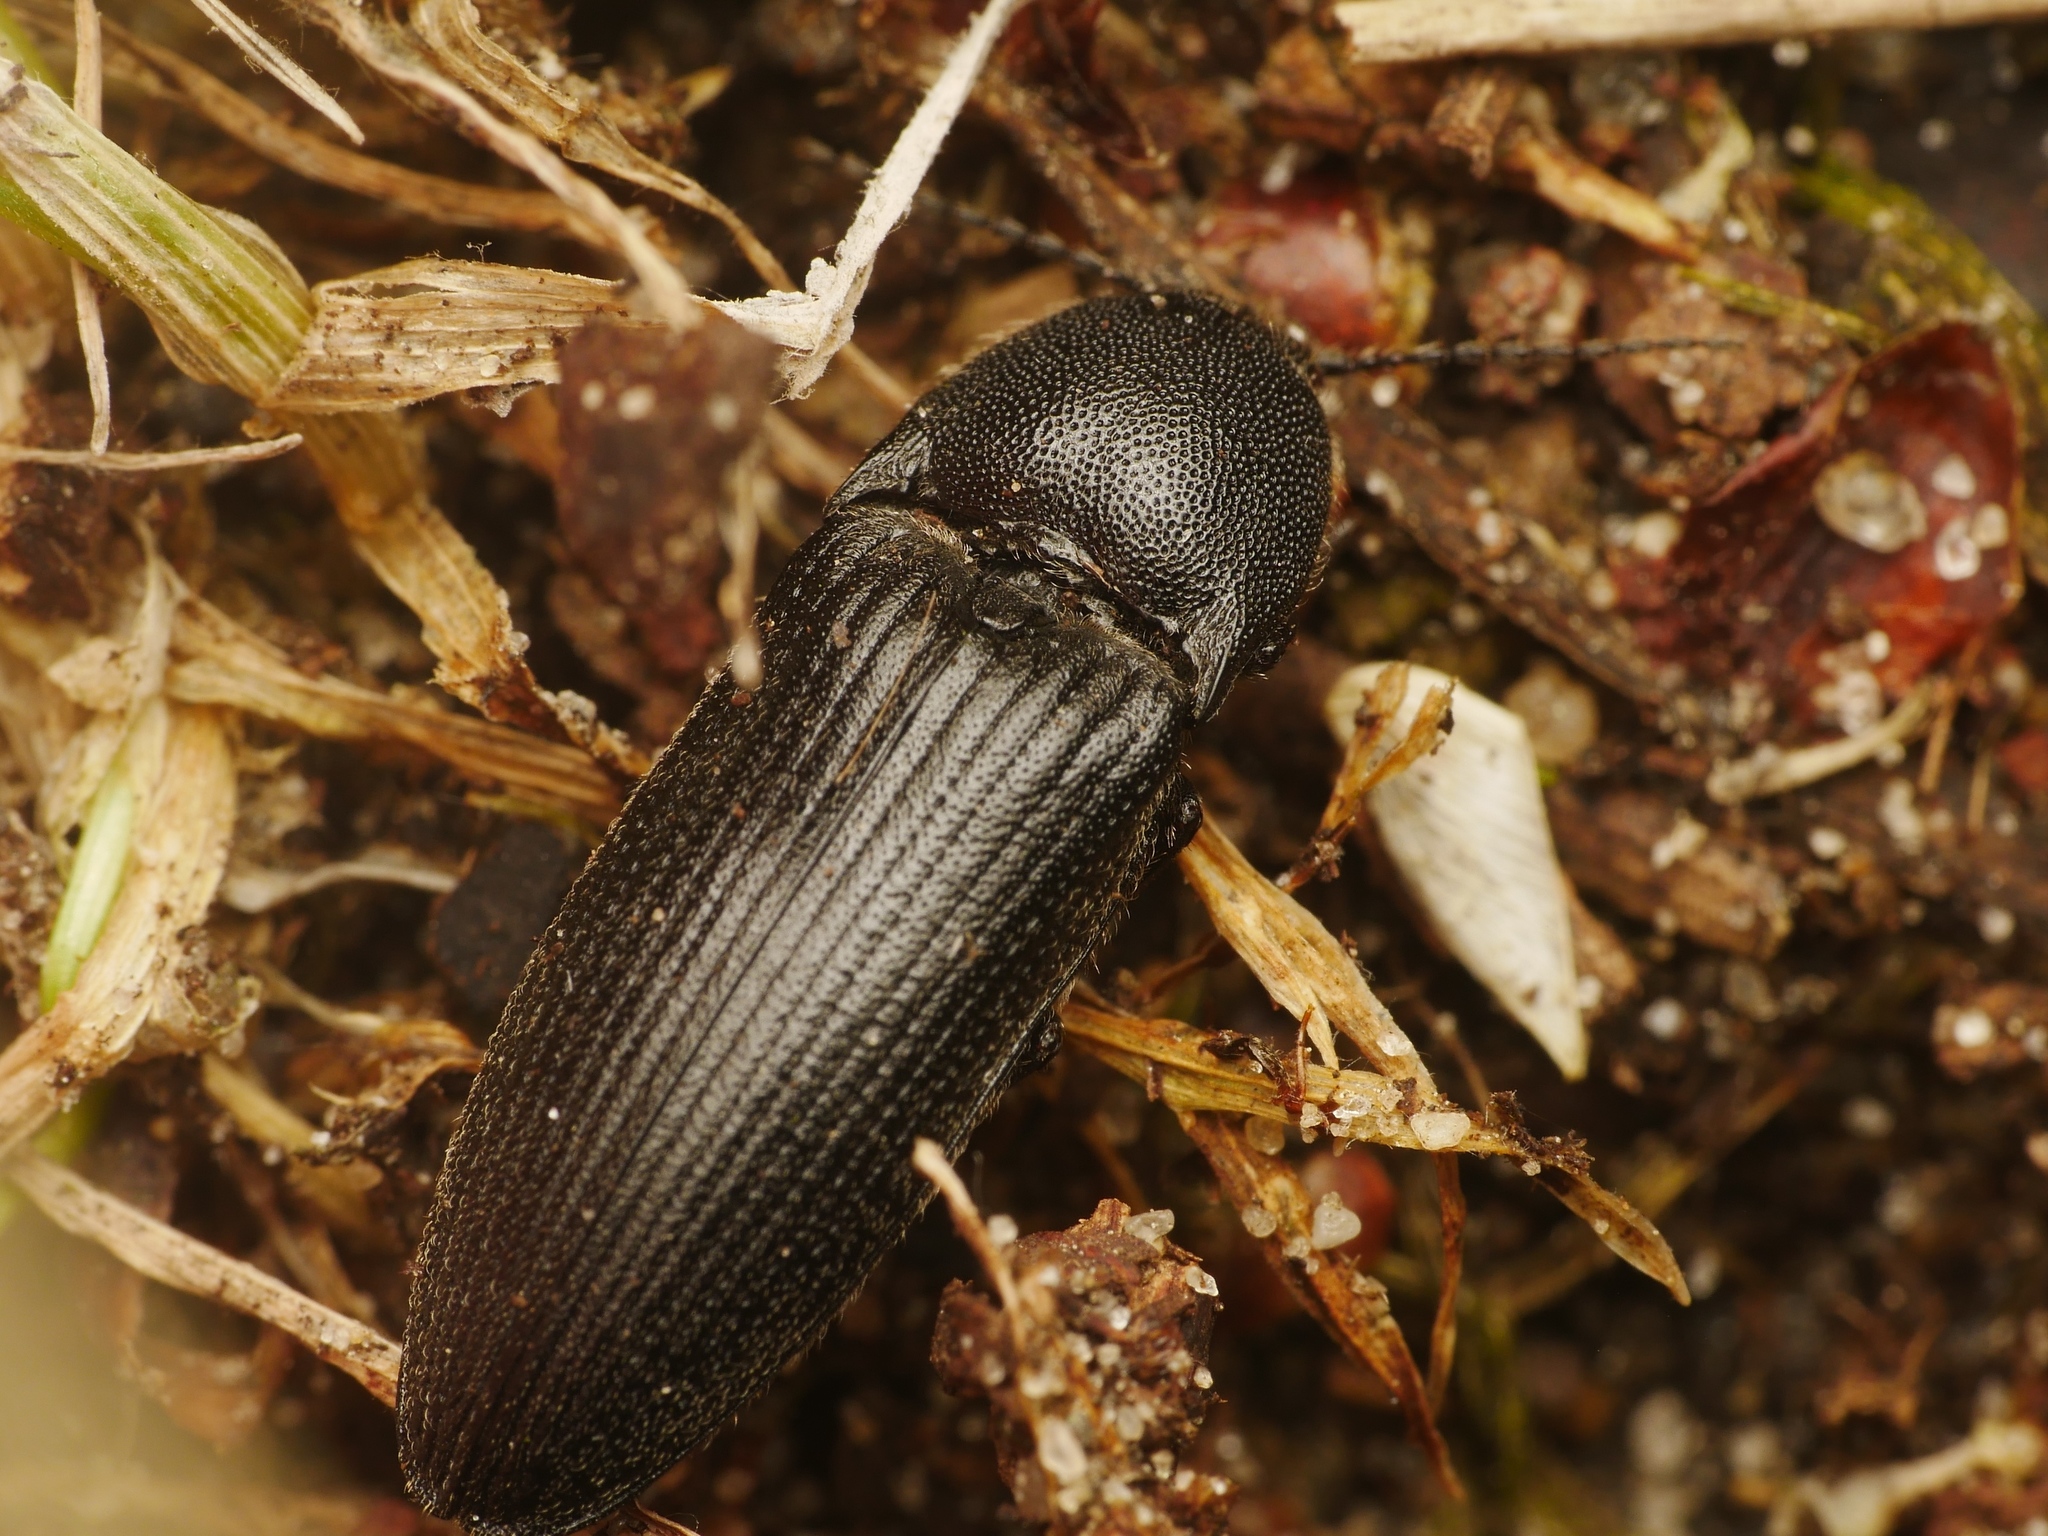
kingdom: Animalia
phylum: Arthropoda
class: Insecta
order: Coleoptera
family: Elateridae
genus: Melanotus
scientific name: Melanotus punctolineatus
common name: Sandwich click beetle
